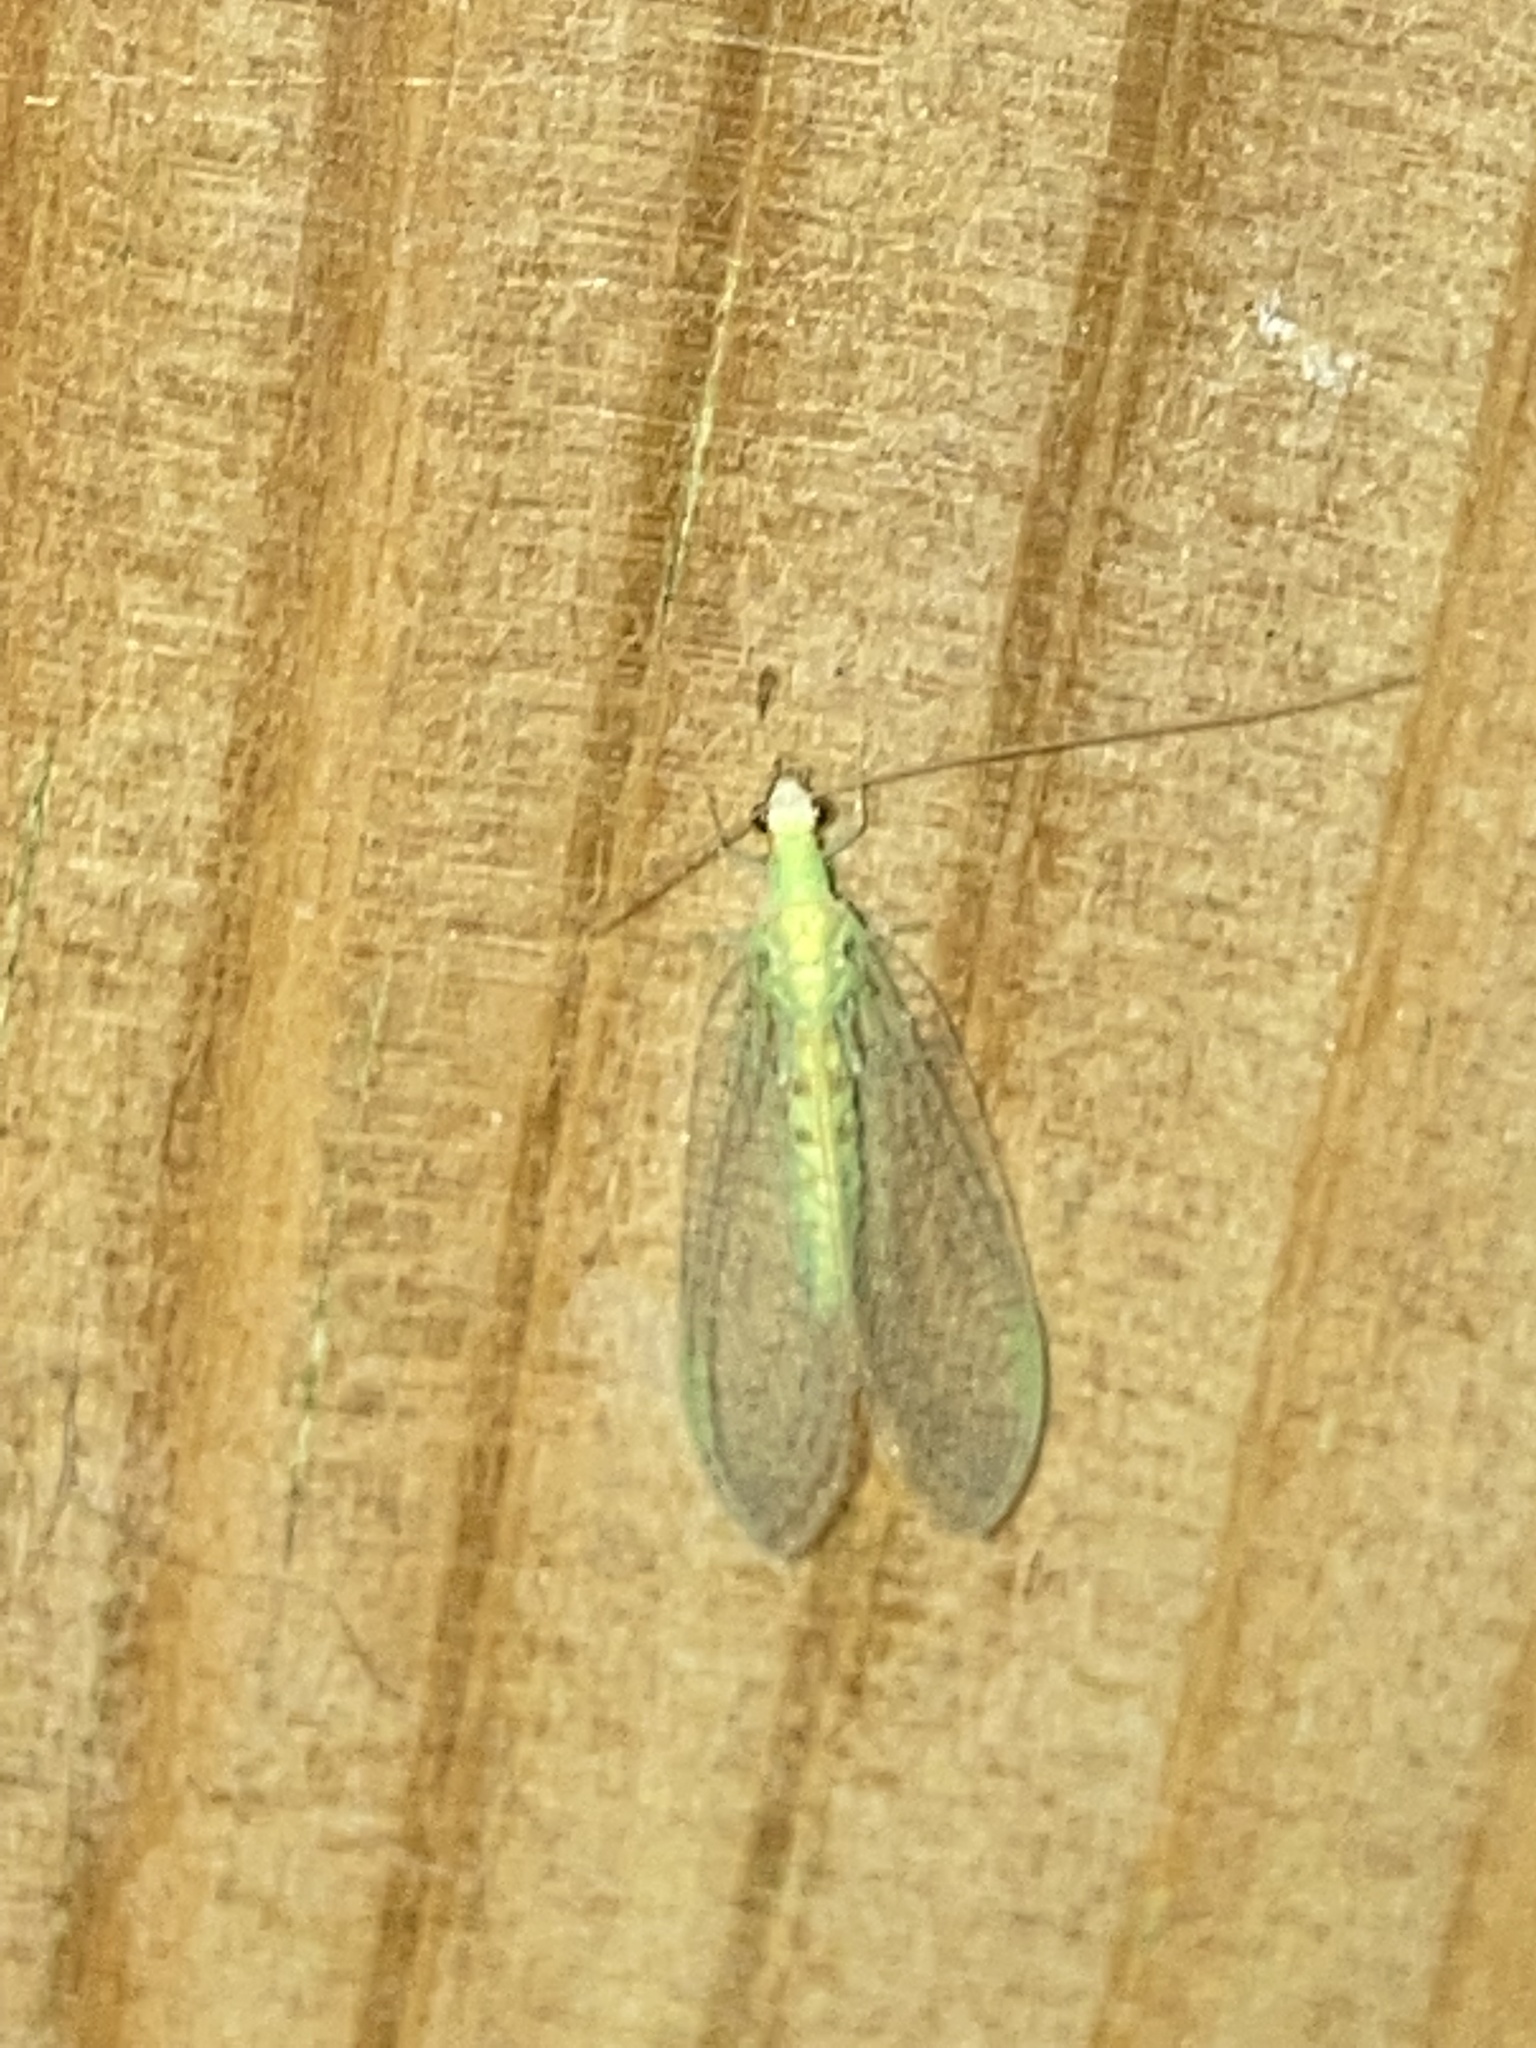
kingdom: Animalia
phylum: Arthropoda
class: Insecta
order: Neuroptera
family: Chrysopidae
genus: Chrysopa
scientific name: Chrysopa quadripunctata
